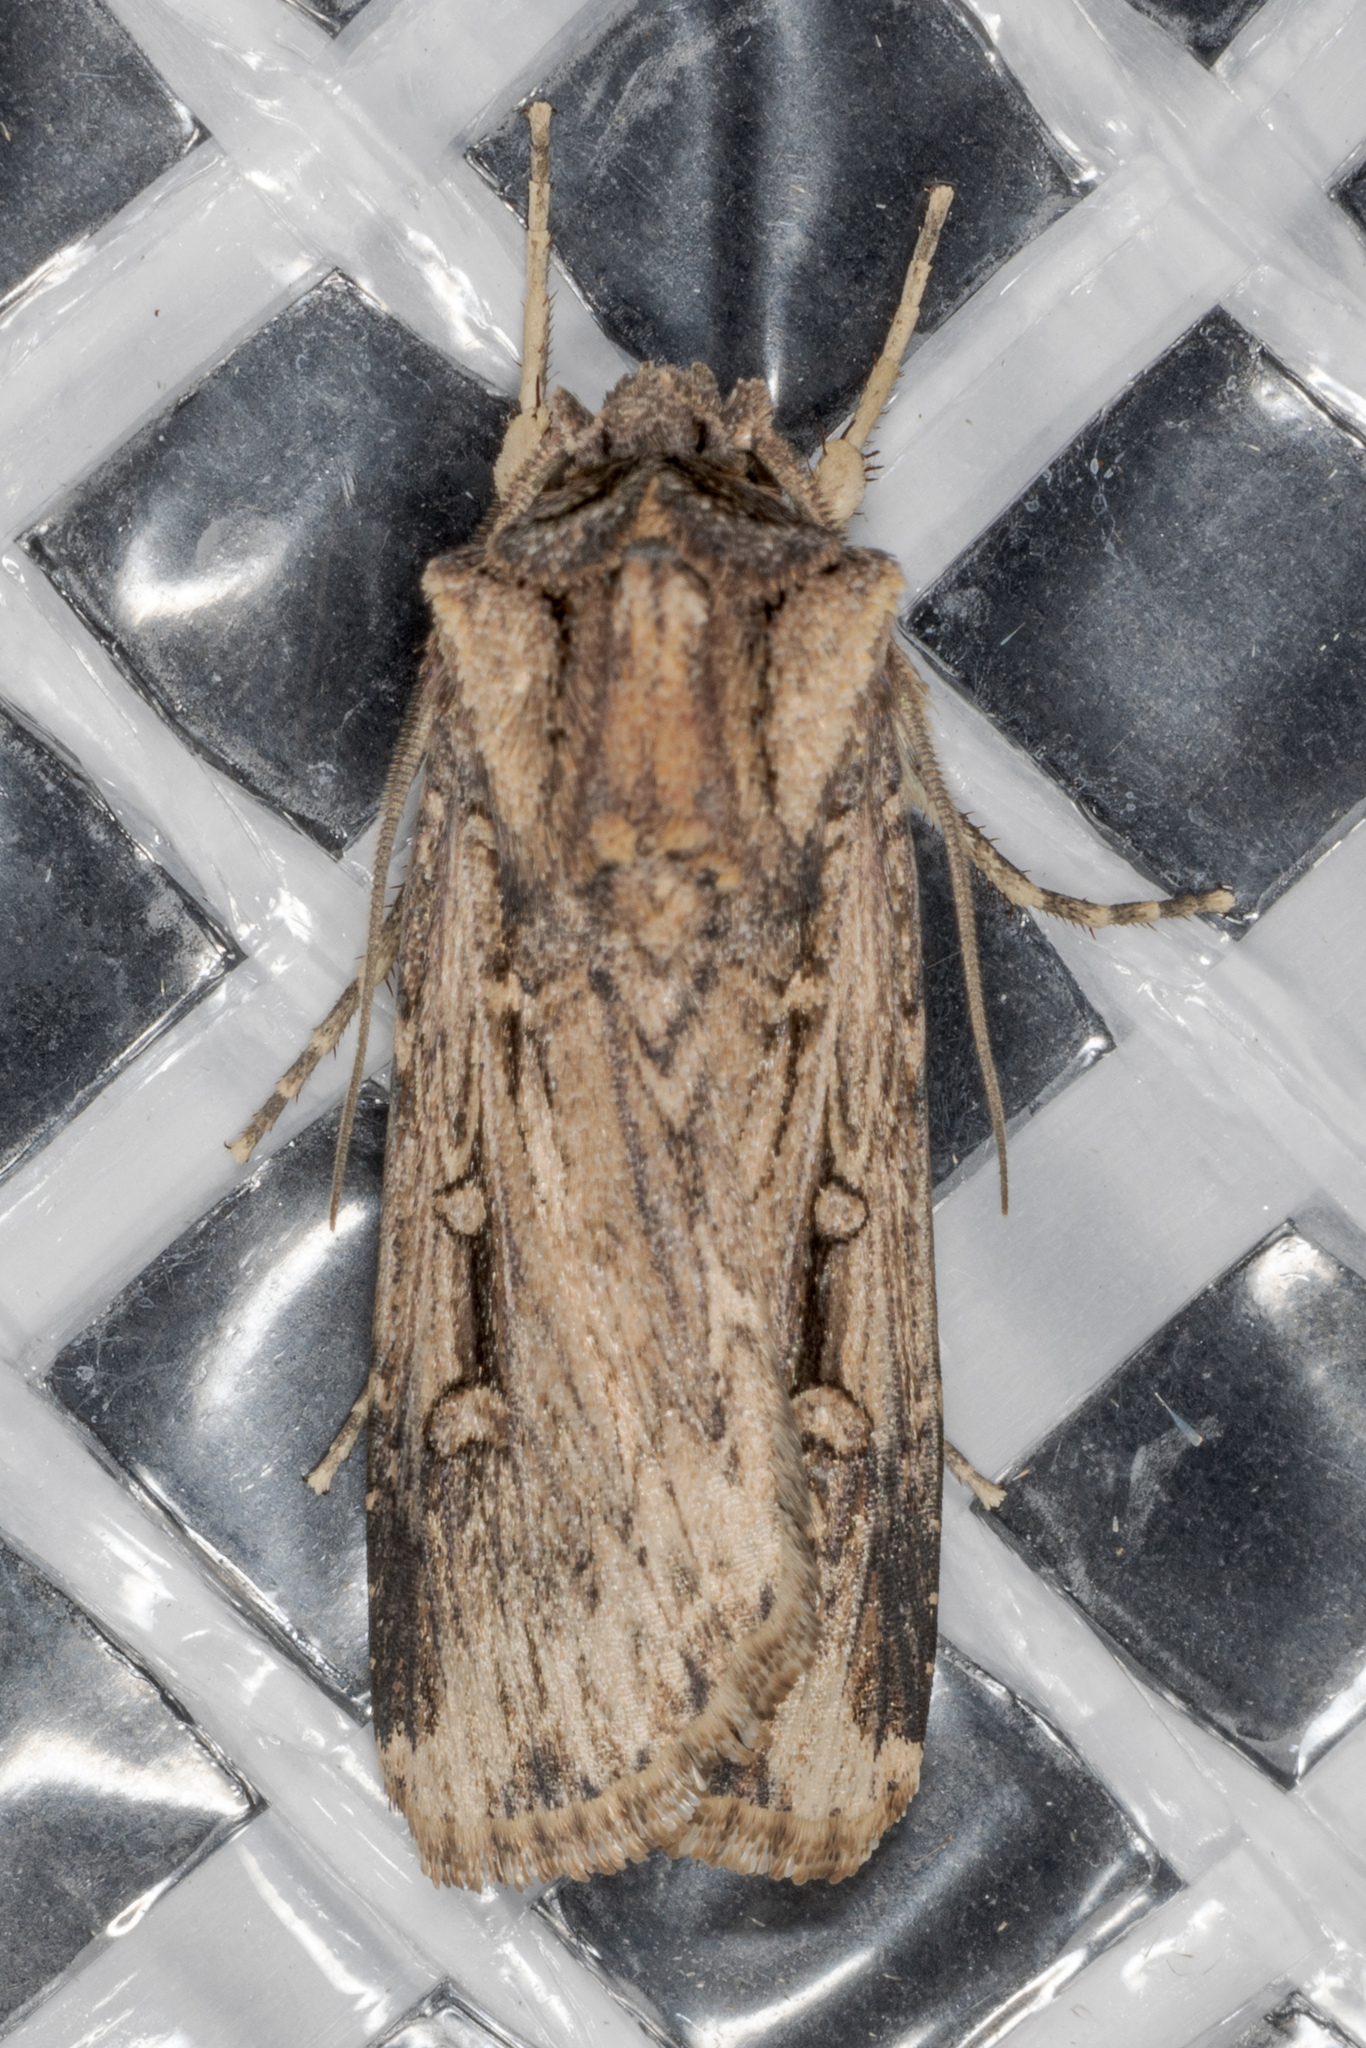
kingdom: Animalia
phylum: Arthropoda
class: Insecta
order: Lepidoptera
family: Noctuidae
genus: Feltia
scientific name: Feltia subterranea
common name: Granulate cutworm
